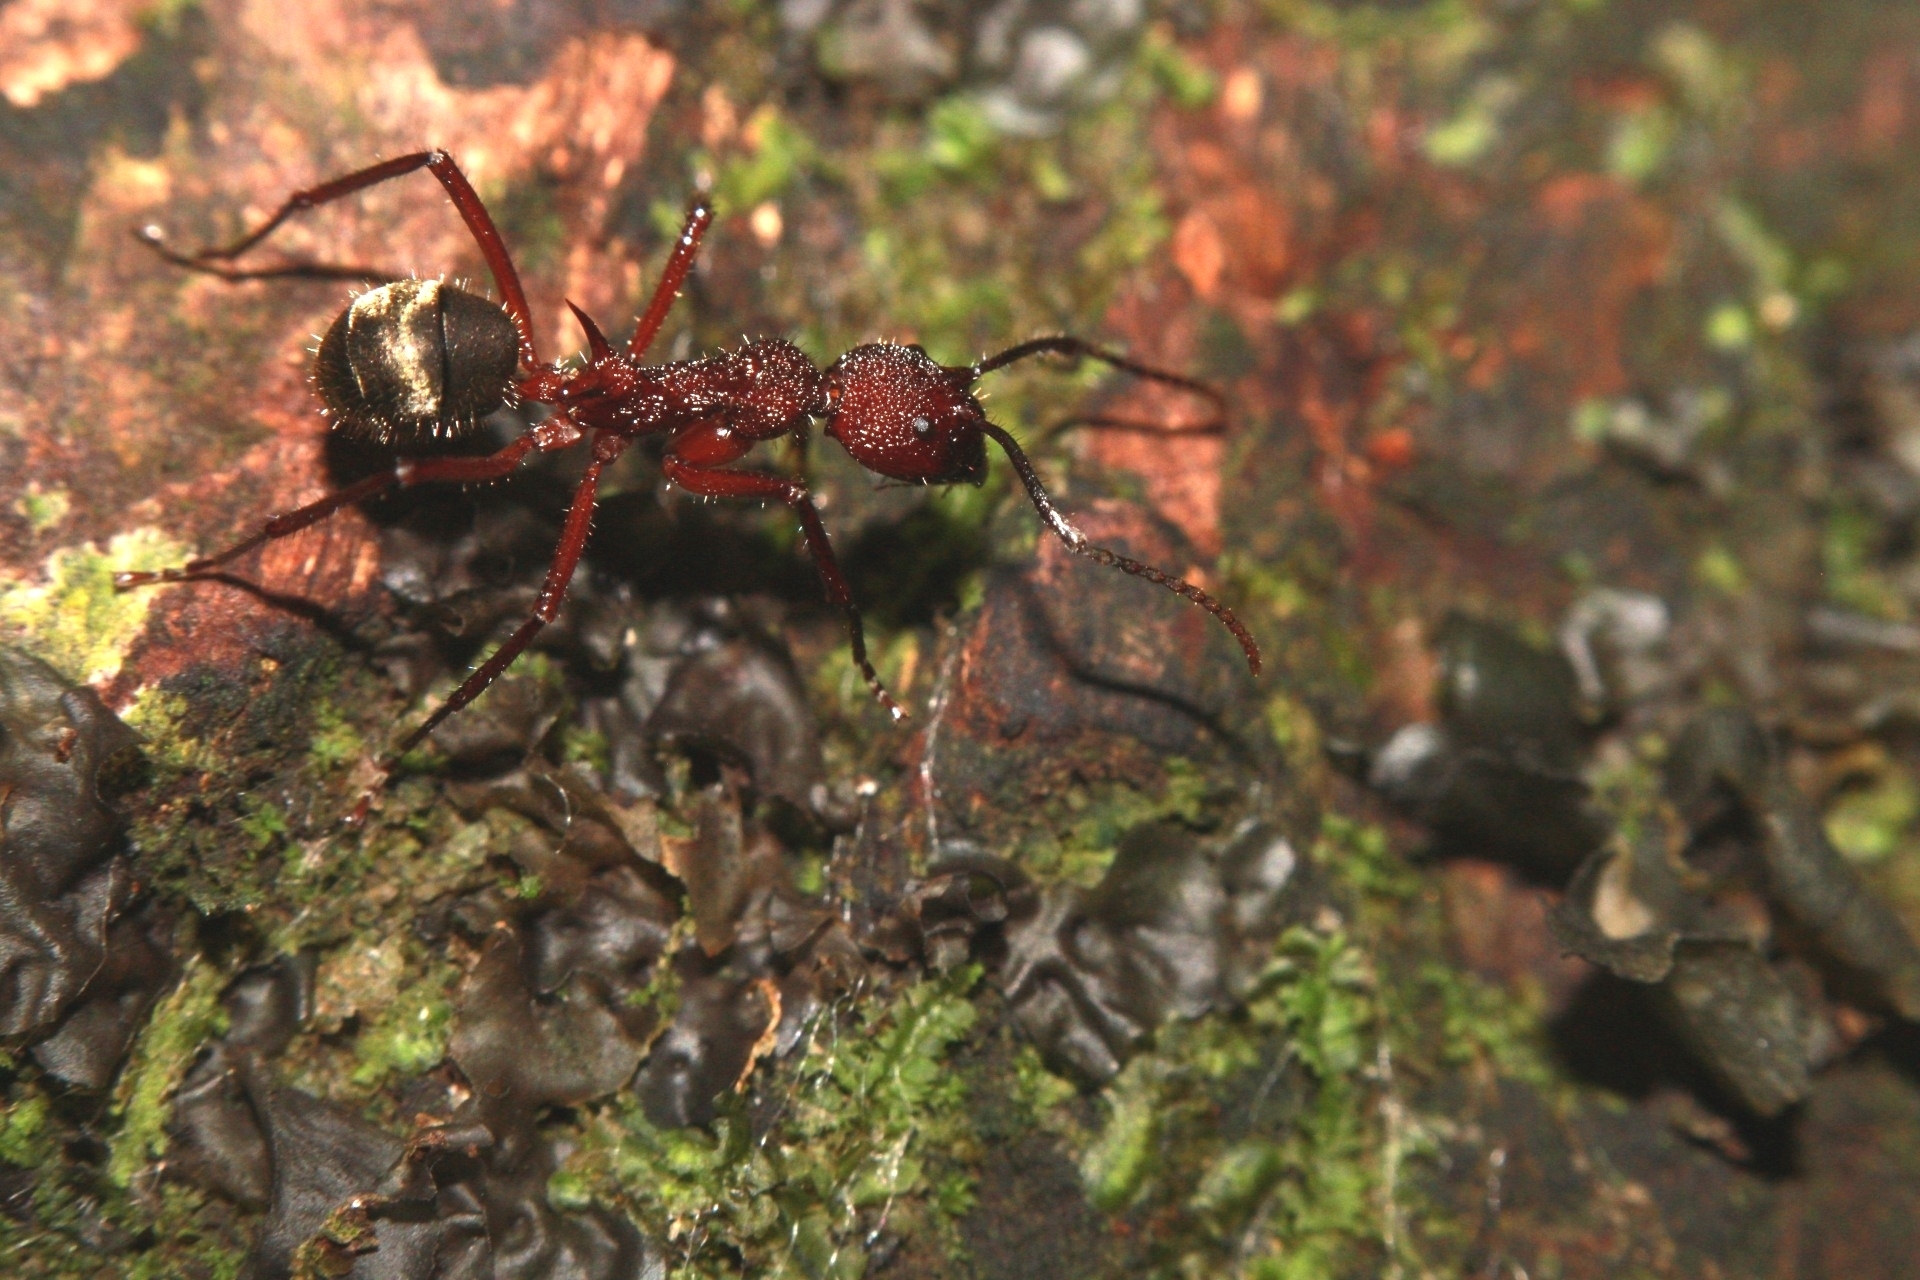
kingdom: Animalia
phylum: Arthropoda
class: Insecta
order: Hymenoptera
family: Formicidae
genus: Dolichoderus
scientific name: Dolichoderus decollatus
